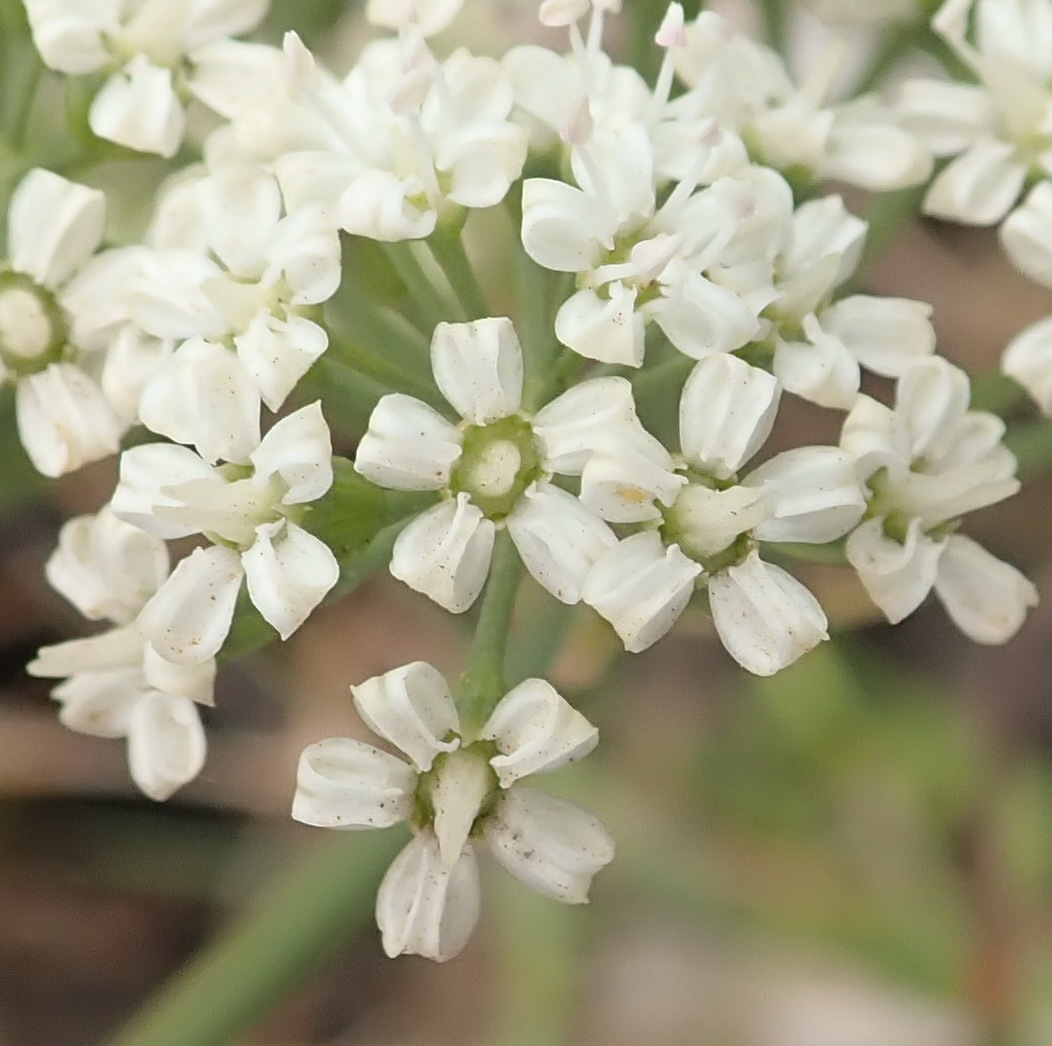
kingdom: Plantae
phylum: Tracheophyta
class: Magnoliopsida
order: Apiales
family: Apiaceae
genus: Lichtensteinia
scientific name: Lichtensteinia interrupta
